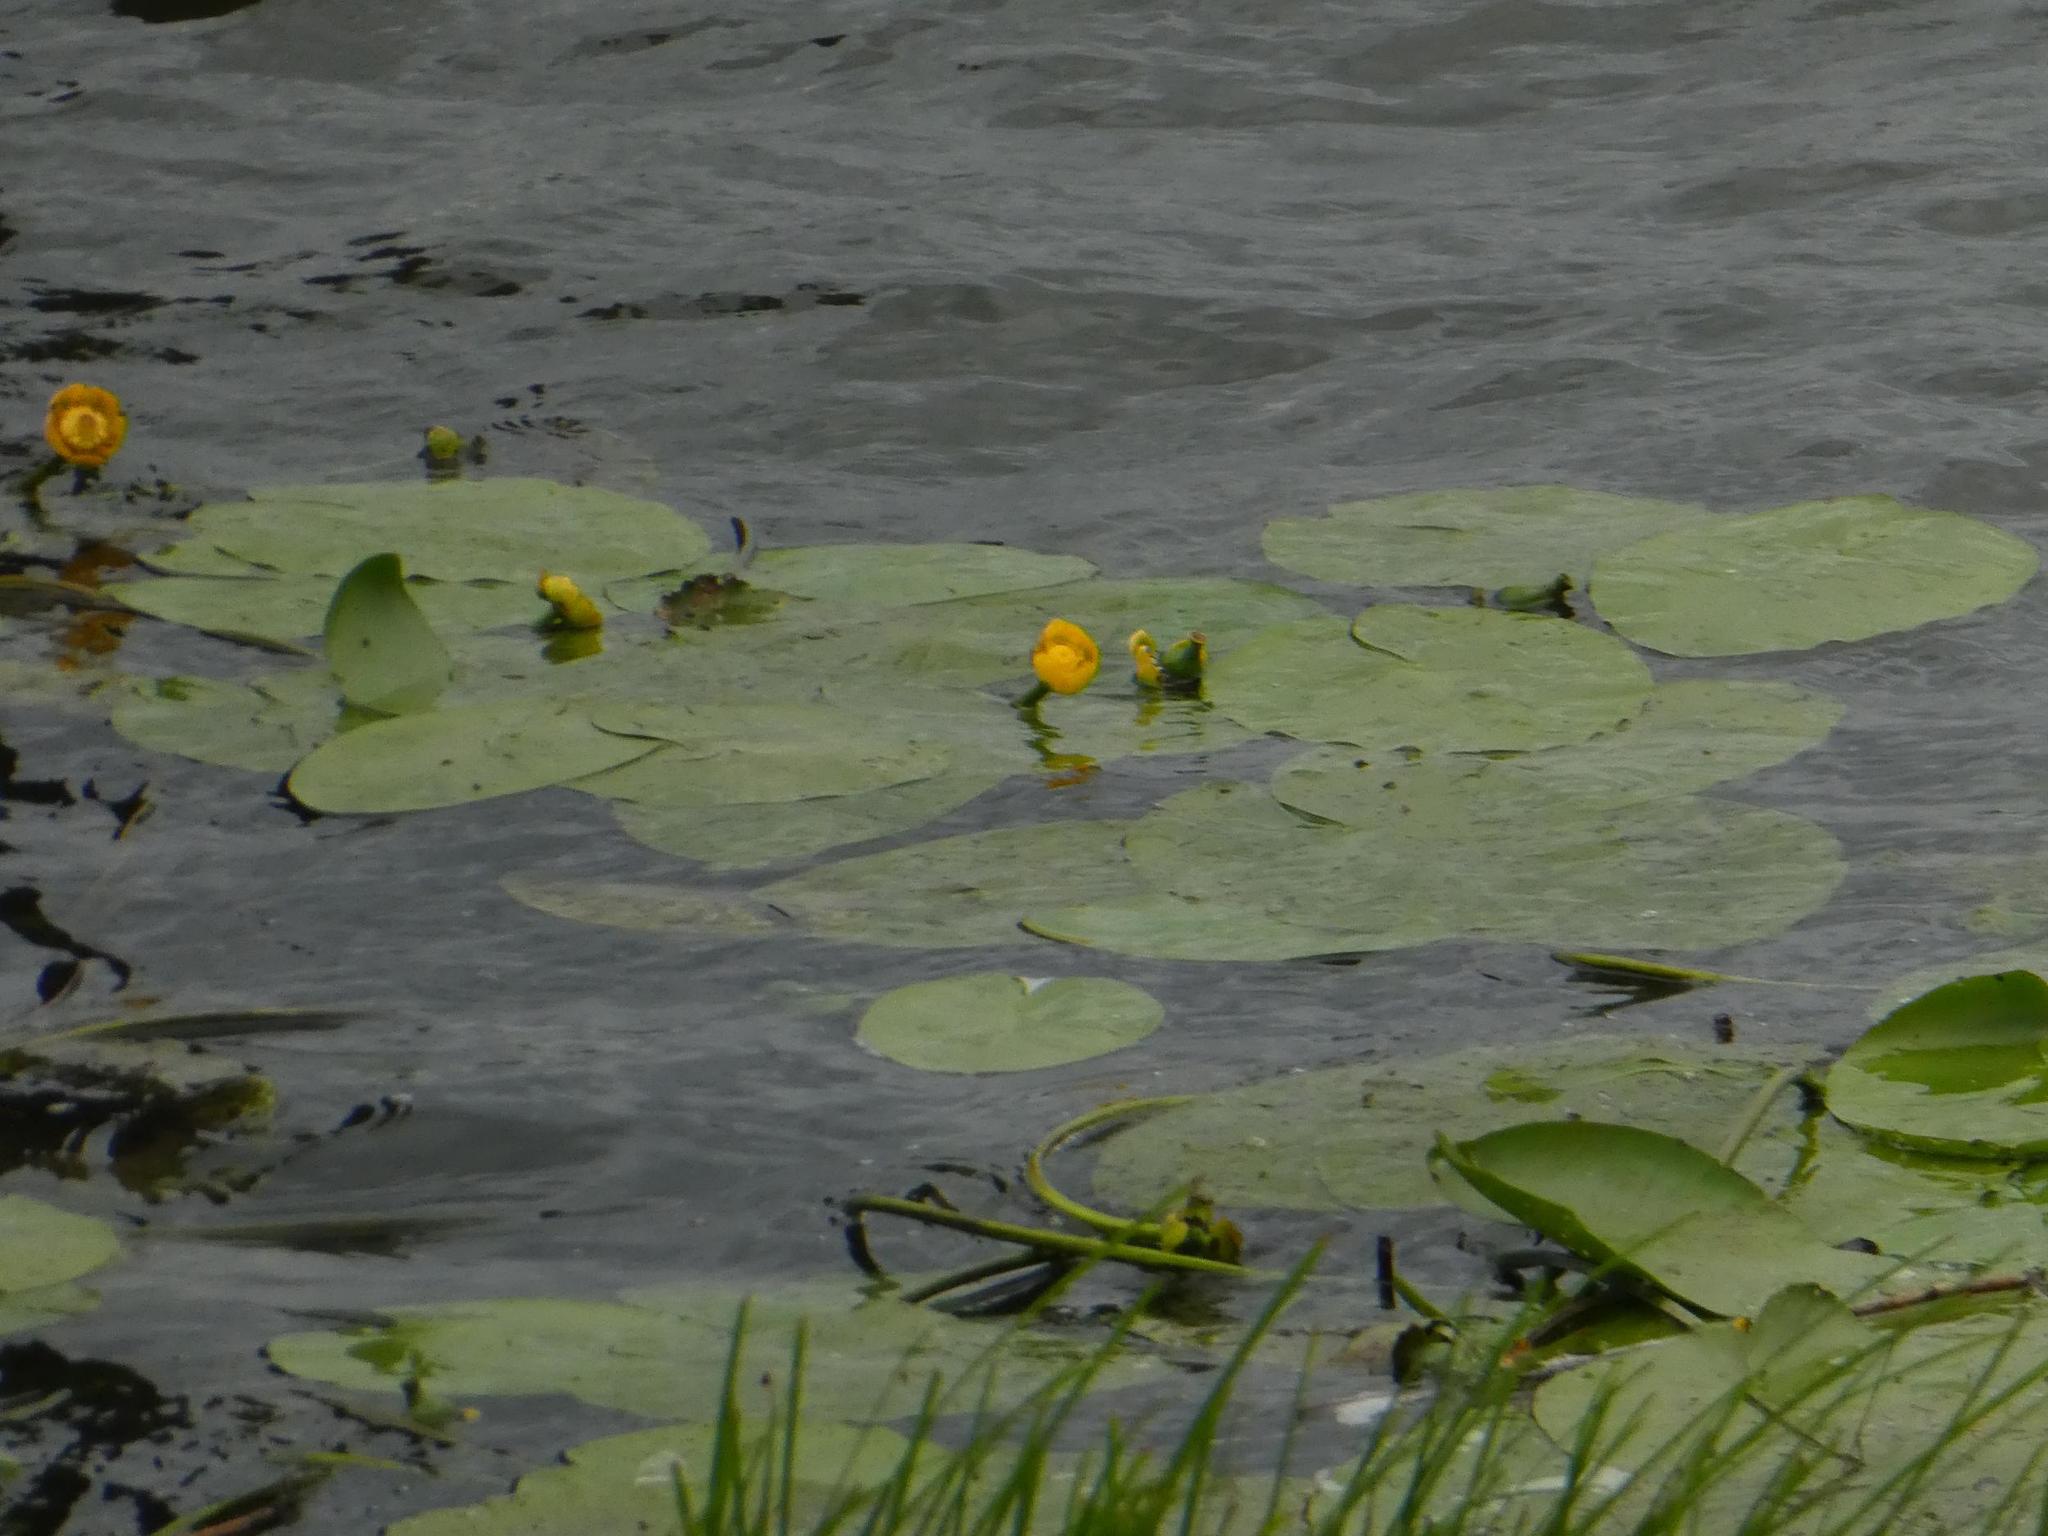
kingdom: Plantae
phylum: Tracheophyta
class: Magnoliopsida
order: Nymphaeales
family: Nymphaeaceae
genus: Nuphar
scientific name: Nuphar lutea
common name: Yellow water-lily
